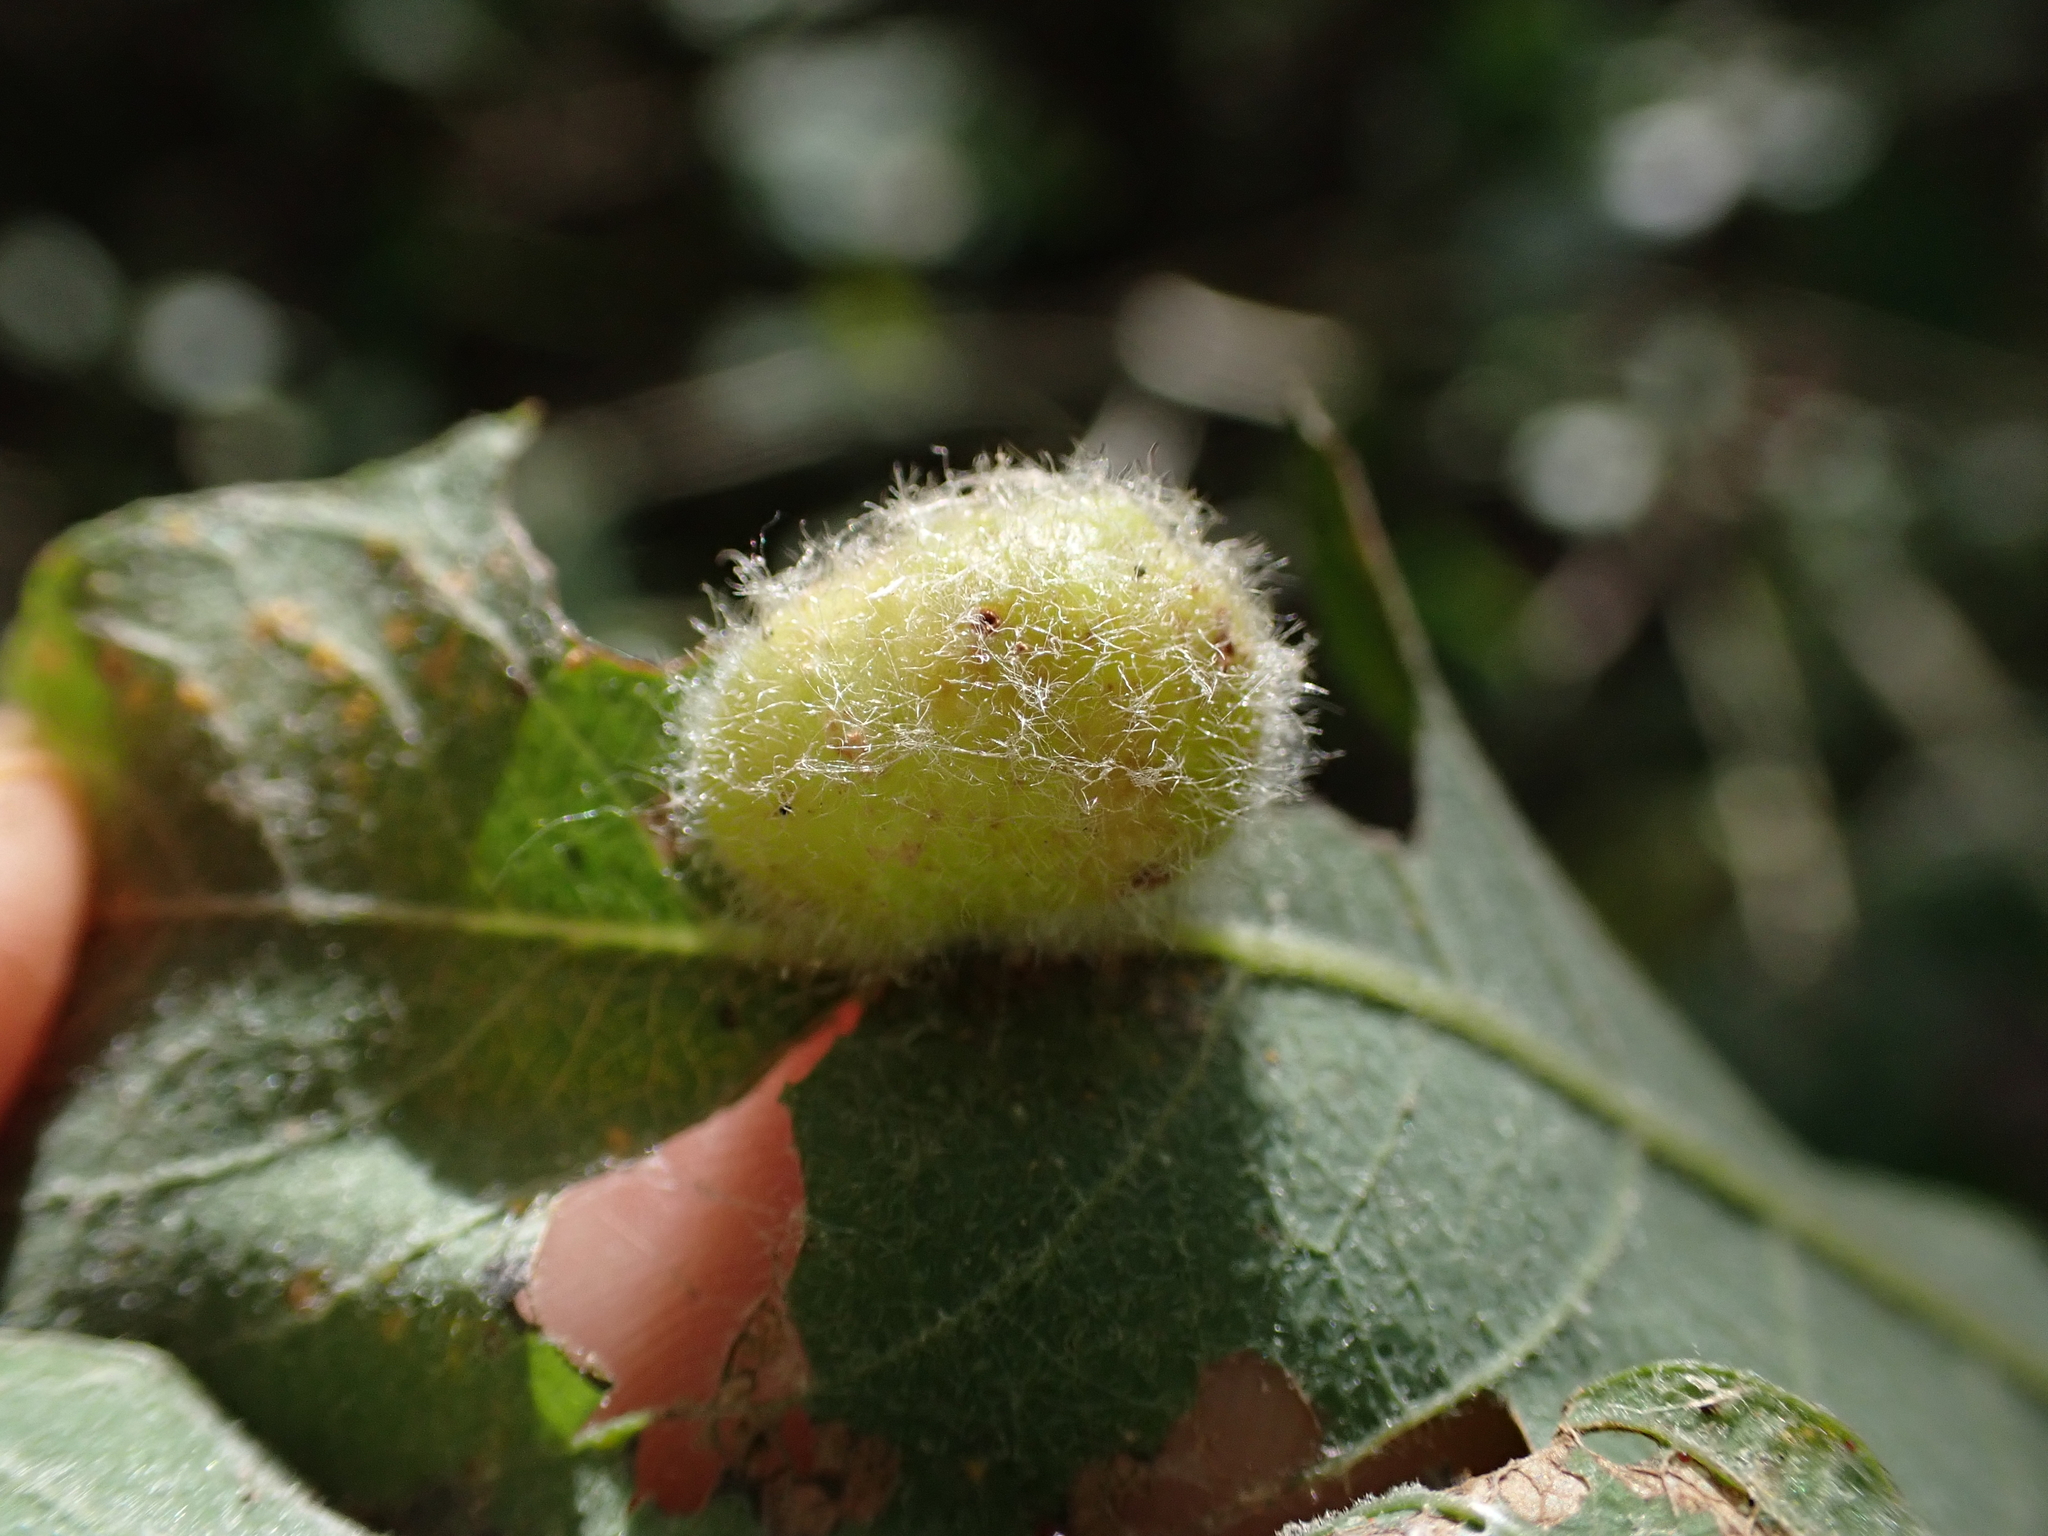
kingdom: Animalia
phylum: Arthropoda
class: Insecta
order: Hymenoptera
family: Tenthredinidae
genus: Pontania
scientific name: Pontania brevicornis
